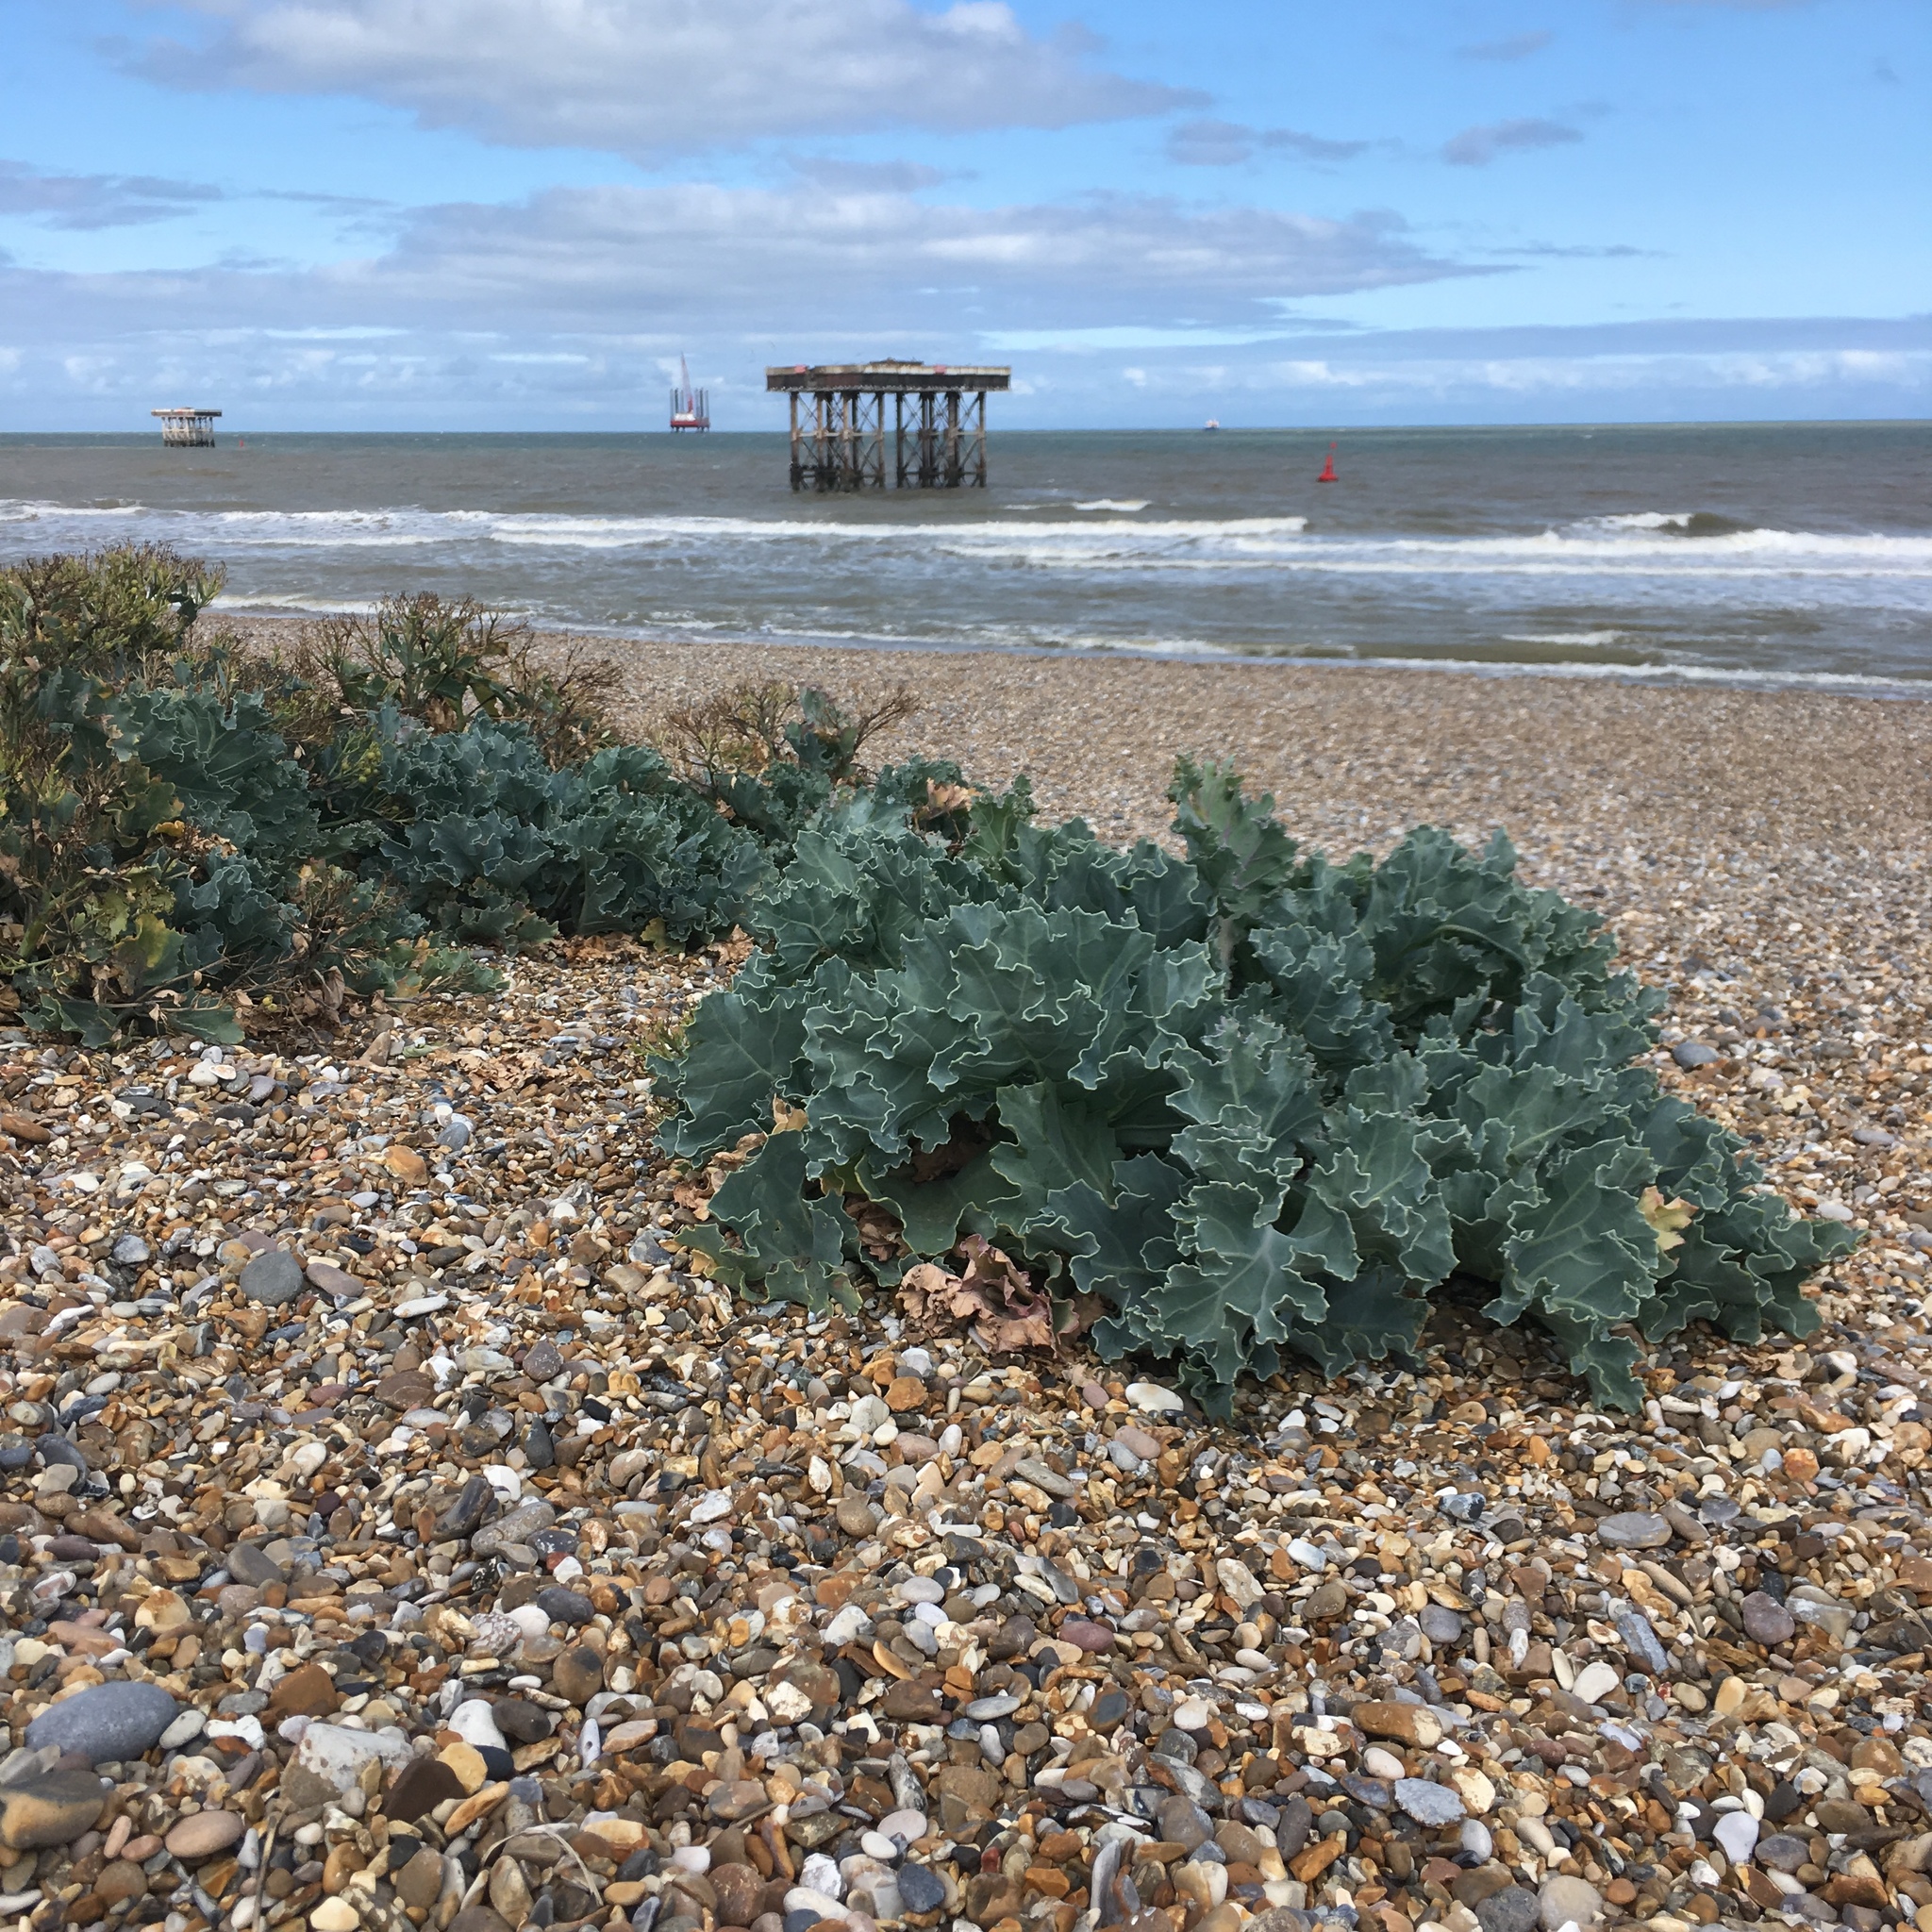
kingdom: Plantae
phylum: Tracheophyta
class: Magnoliopsida
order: Brassicales
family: Brassicaceae
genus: Crambe
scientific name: Crambe maritima
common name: Sea-kale
